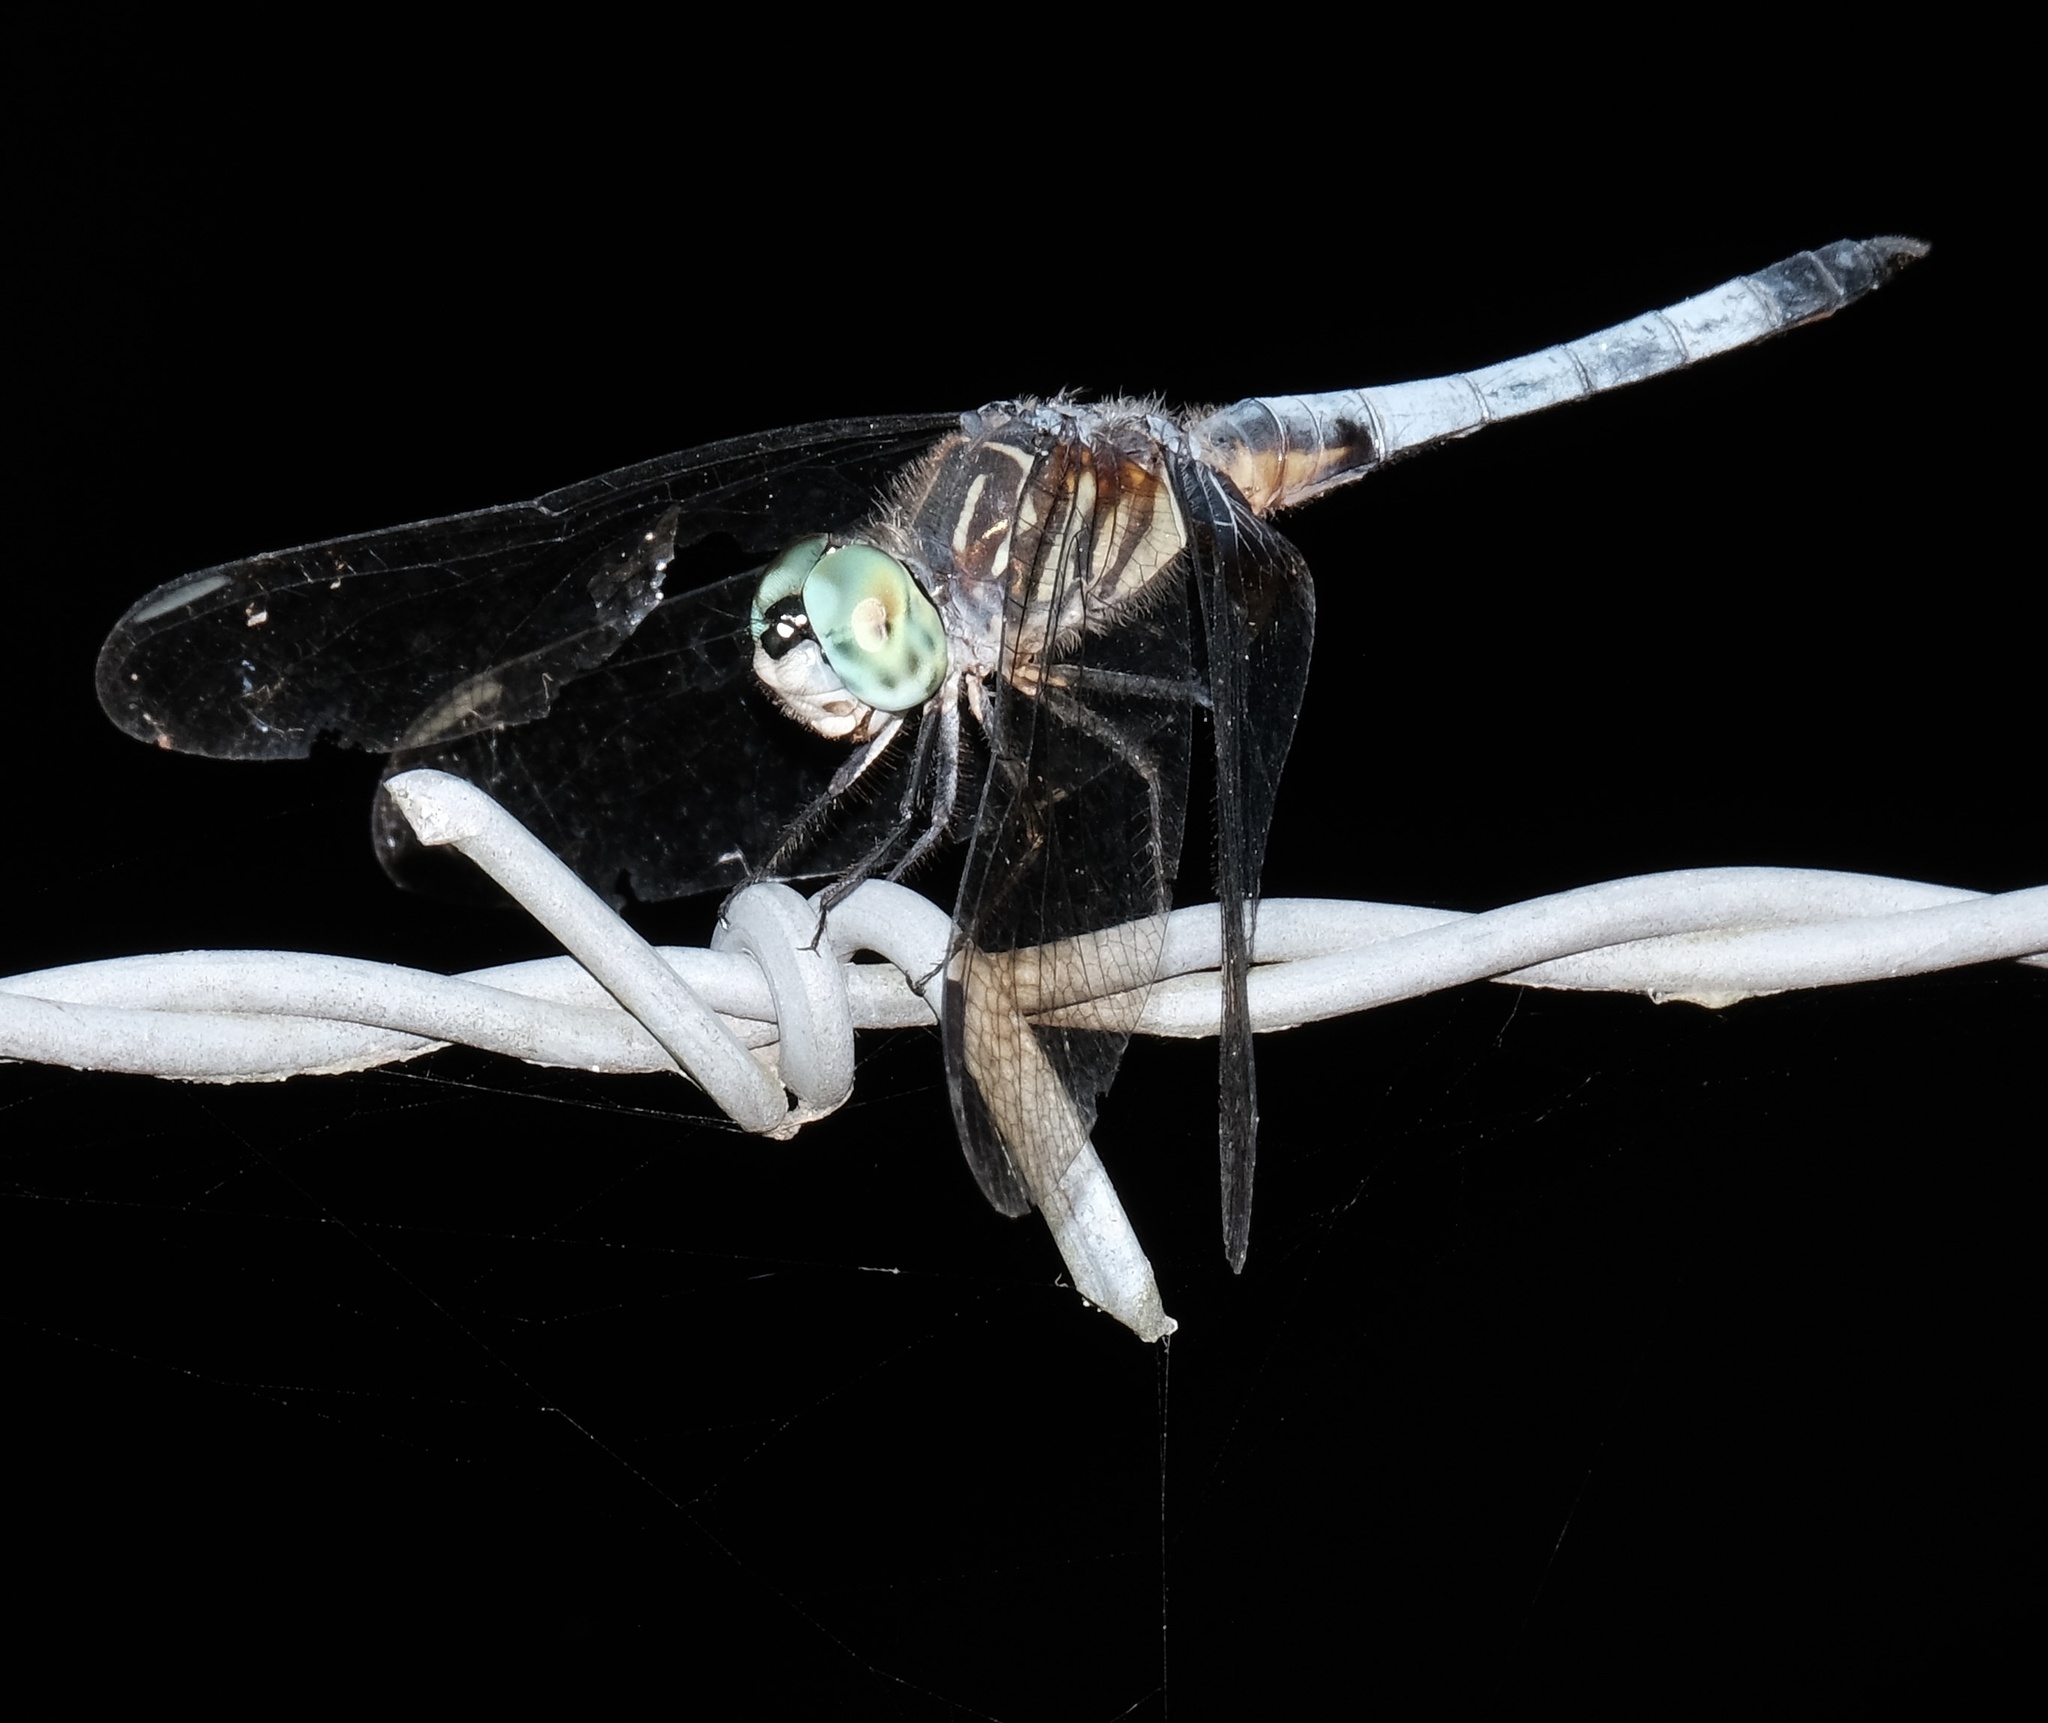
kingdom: Animalia
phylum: Arthropoda
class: Insecta
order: Odonata
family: Libellulidae
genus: Pachydiplax
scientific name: Pachydiplax longipennis
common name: Blue dasher
